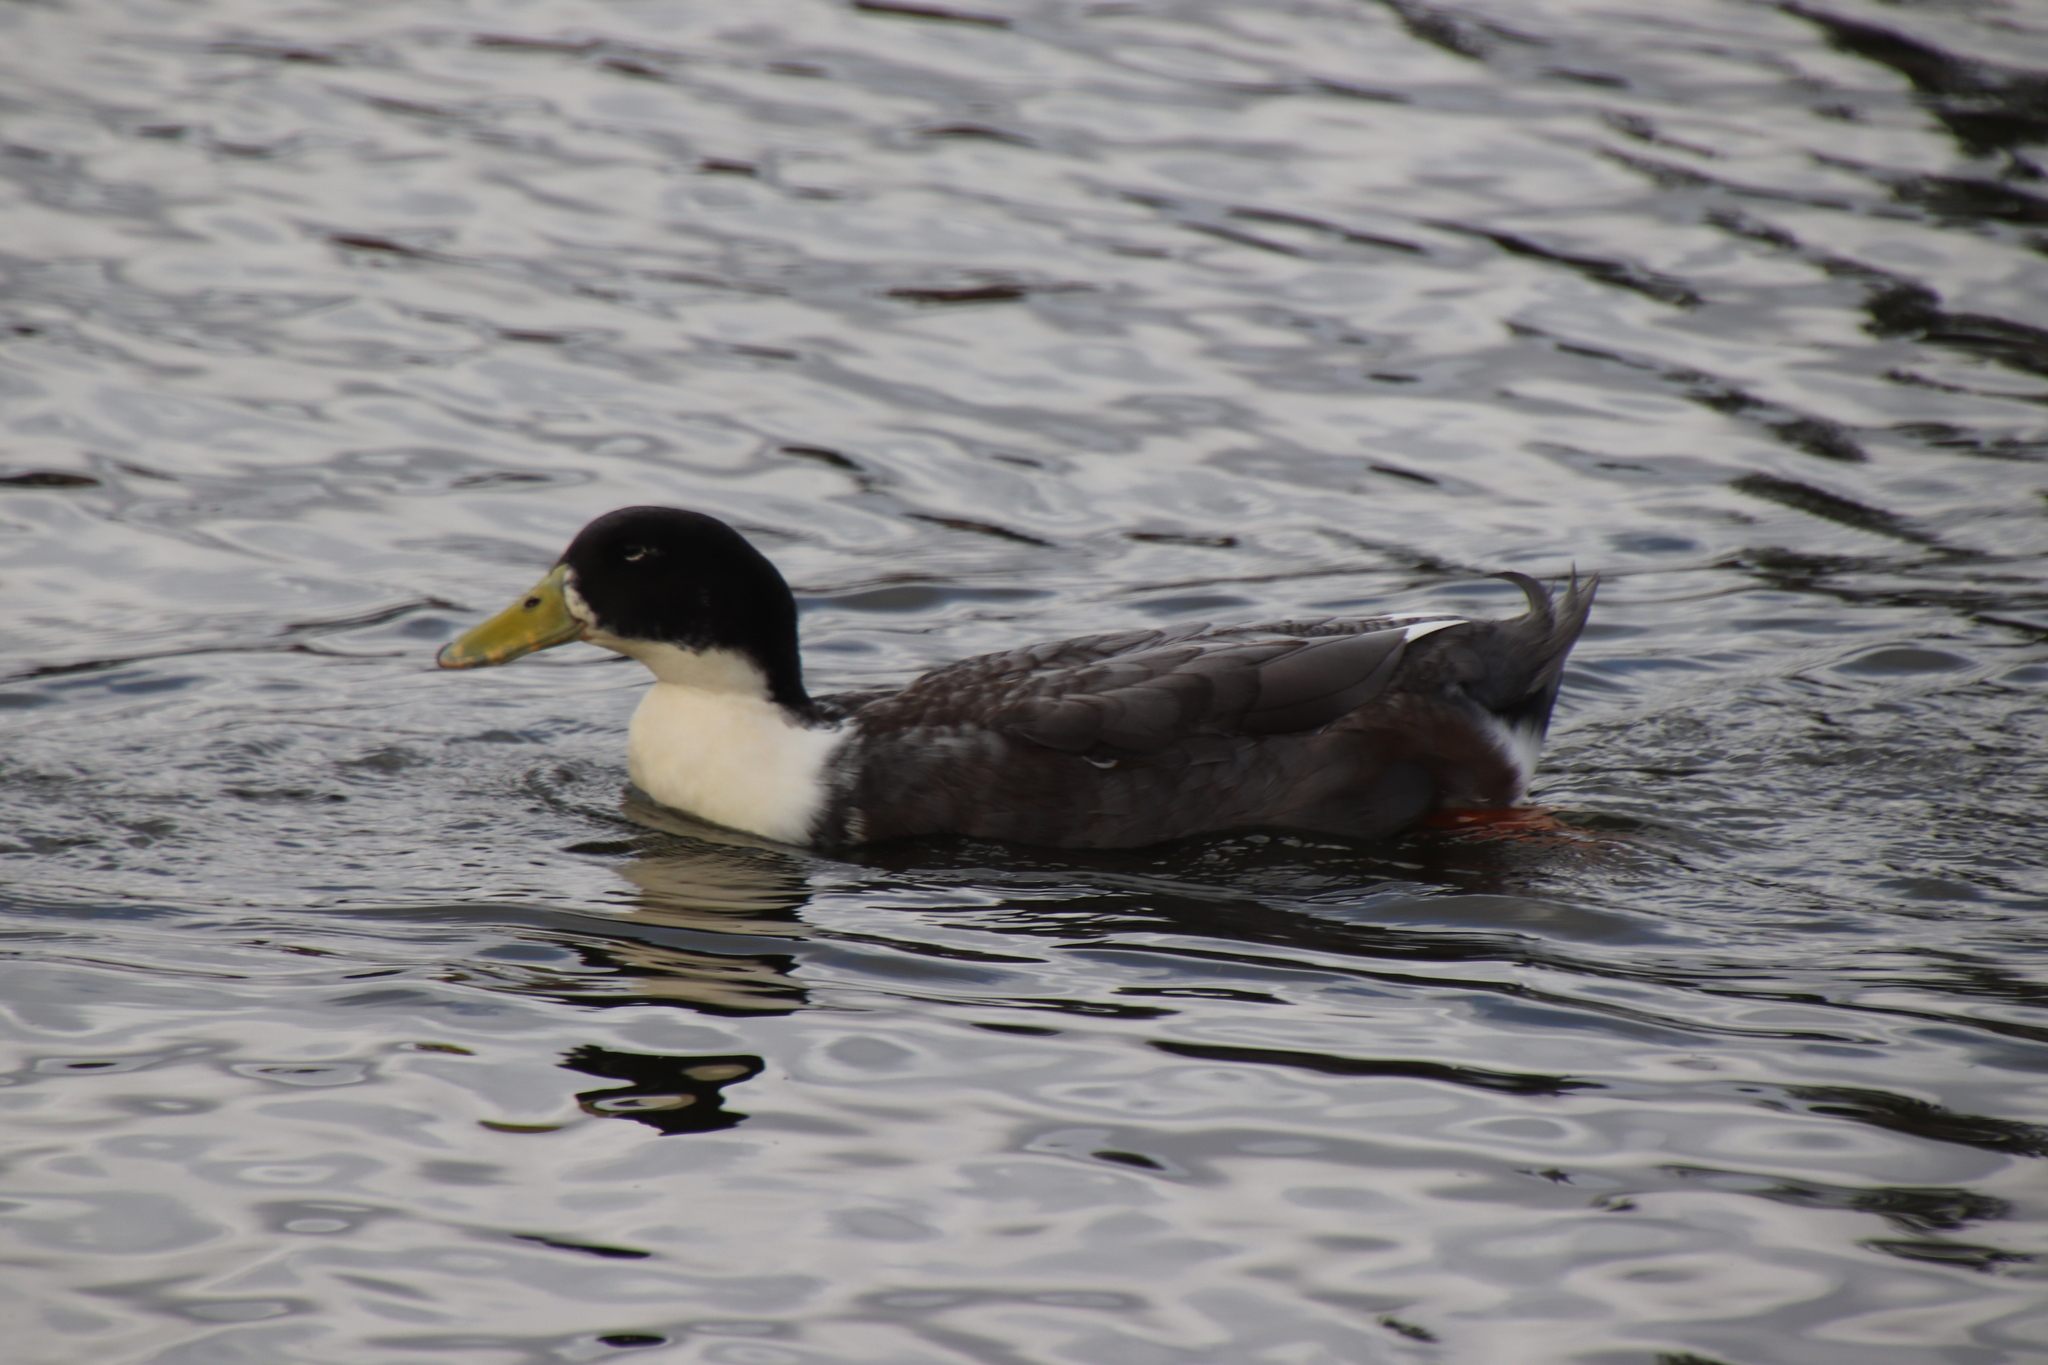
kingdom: Animalia
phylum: Chordata
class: Aves
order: Anseriformes
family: Anatidae
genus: Anas
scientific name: Anas platyrhynchos
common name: Mallard
